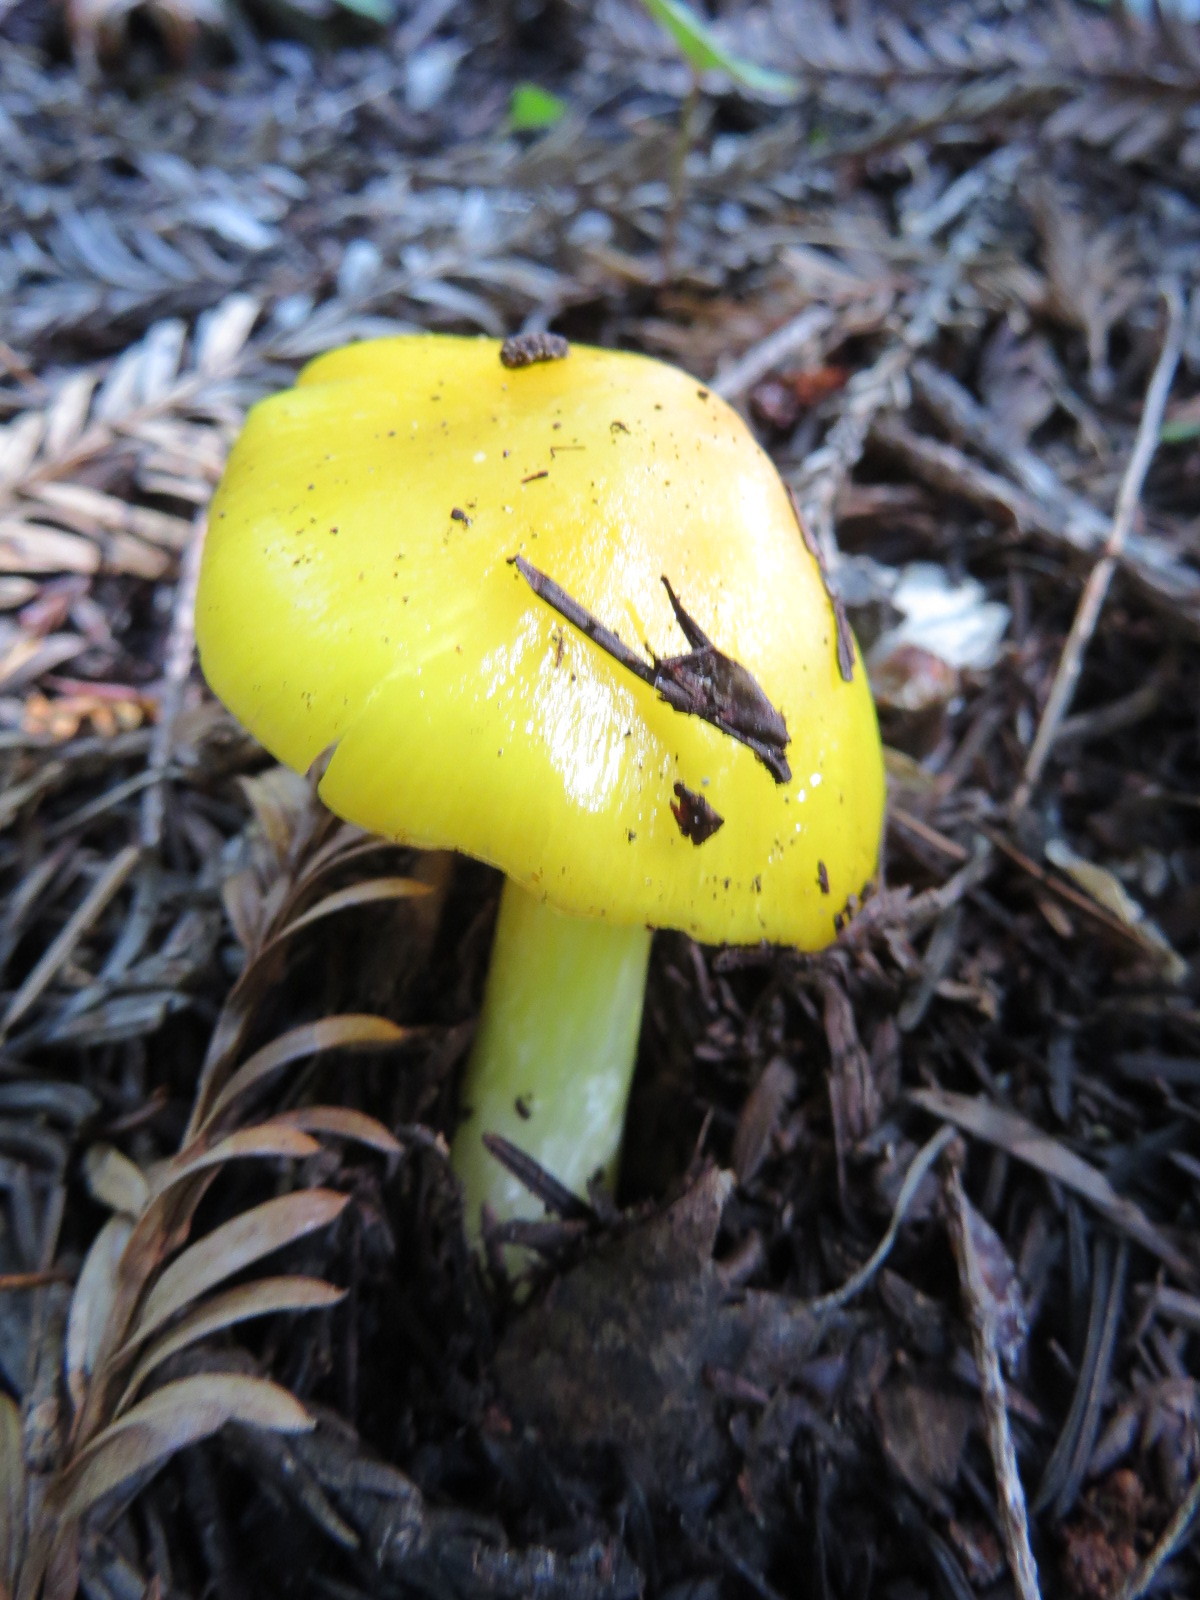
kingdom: Fungi
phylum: Basidiomycota
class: Agaricomycetes
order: Agaricales
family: Hygrophoraceae
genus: Hygrocybe
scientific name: Hygrocybe flavescens
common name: Golden waxy cap
